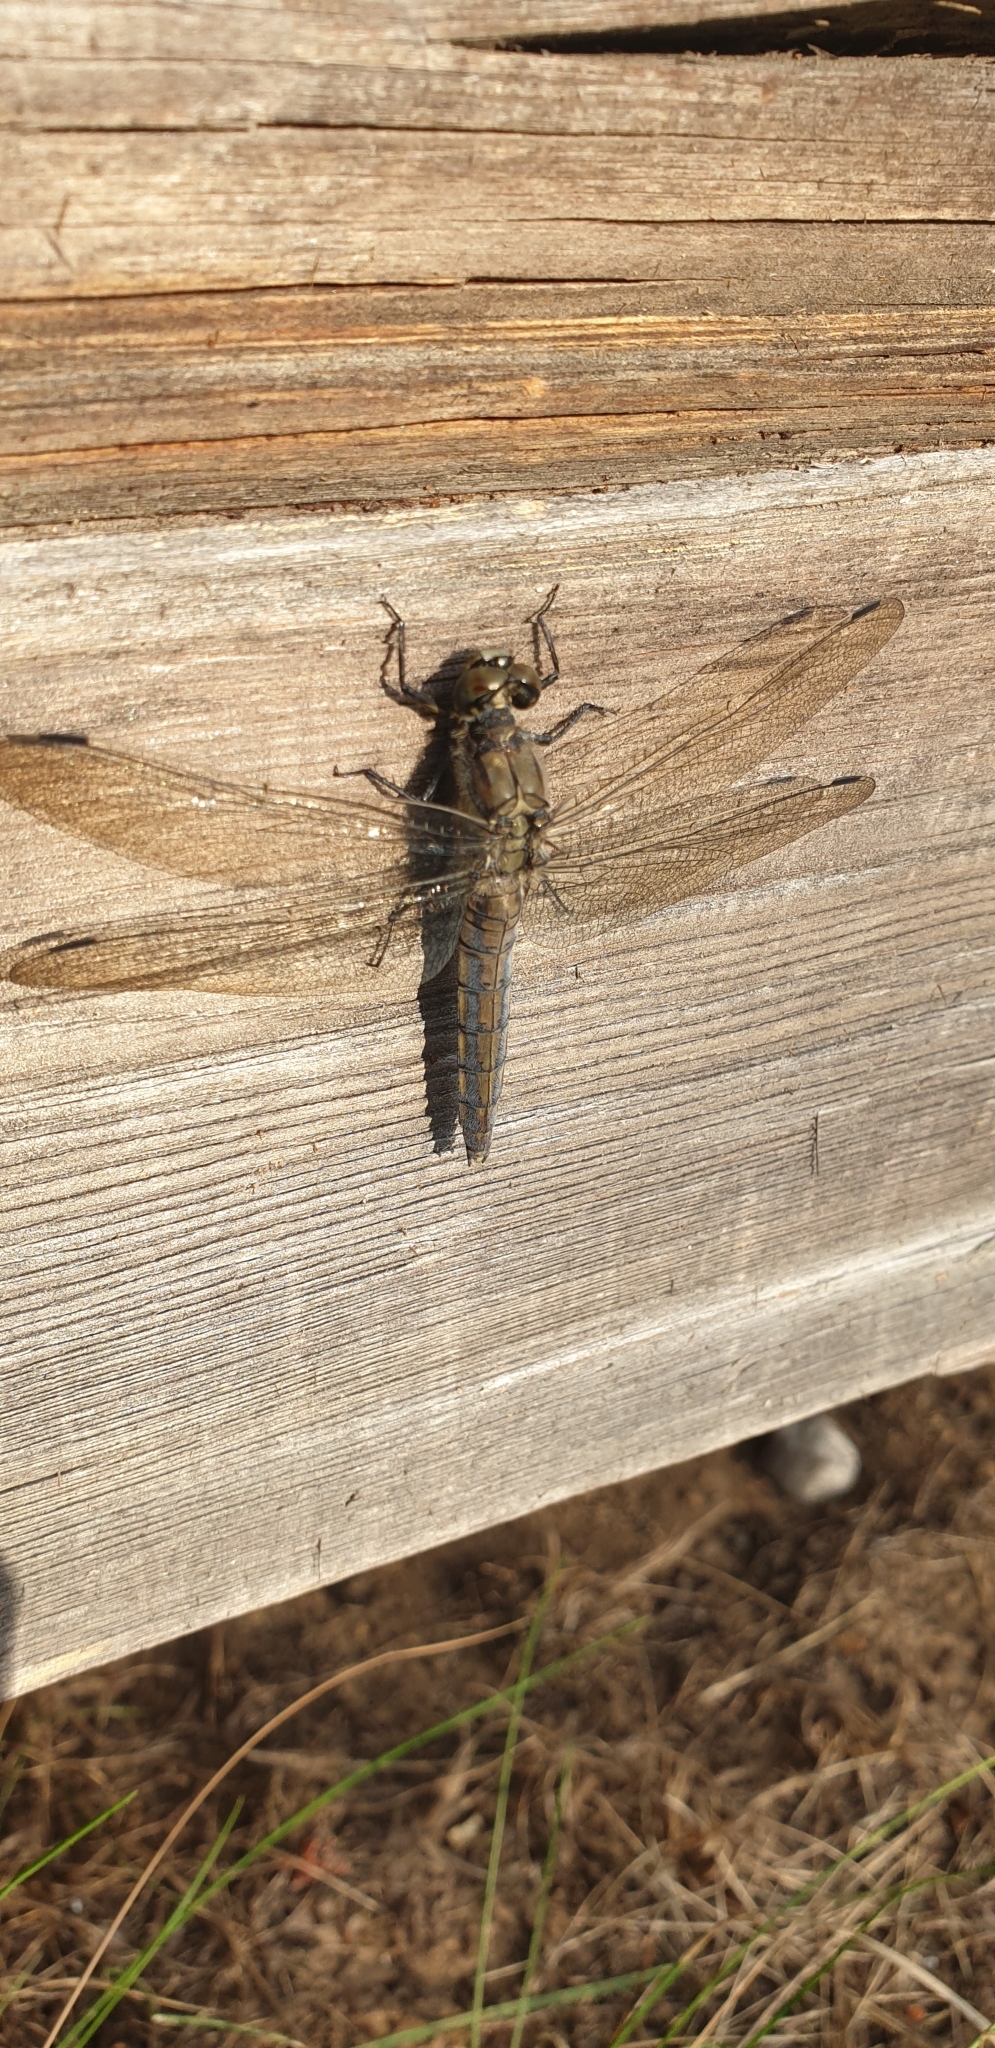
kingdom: Animalia
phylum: Arthropoda
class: Insecta
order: Odonata
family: Libellulidae
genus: Orthetrum
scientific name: Orthetrum cancellatum
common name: Black-tailed skimmer
